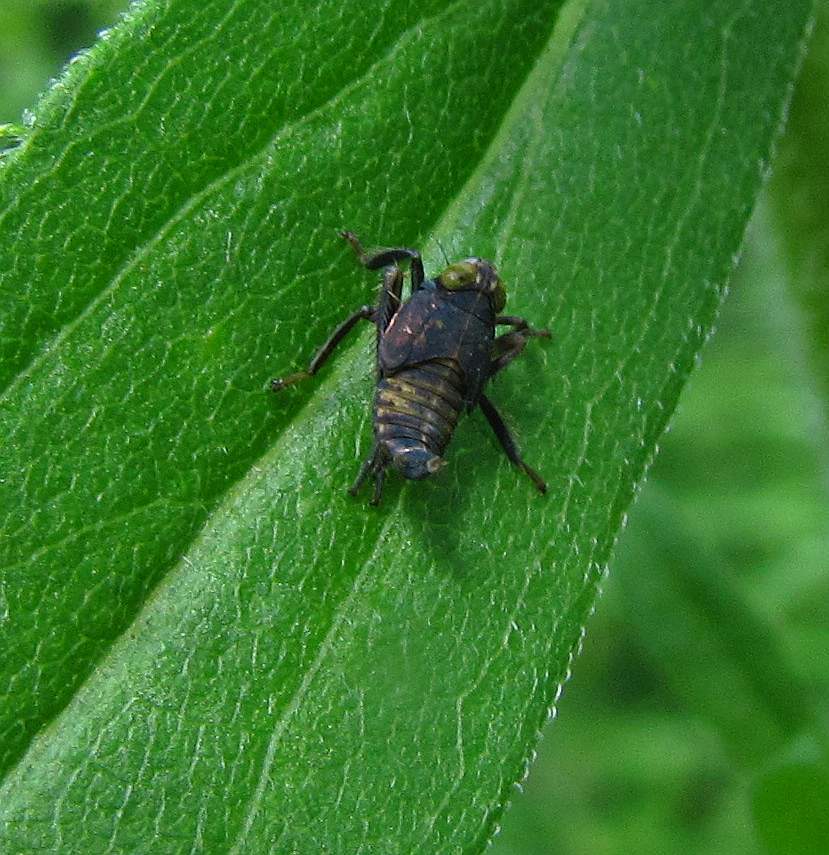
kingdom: Animalia
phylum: Arthropoda
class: Insecta
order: Hemiptera
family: Cicadellidae
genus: Jikradia
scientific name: Jikradia olitoria
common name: Coppery leafhopper
